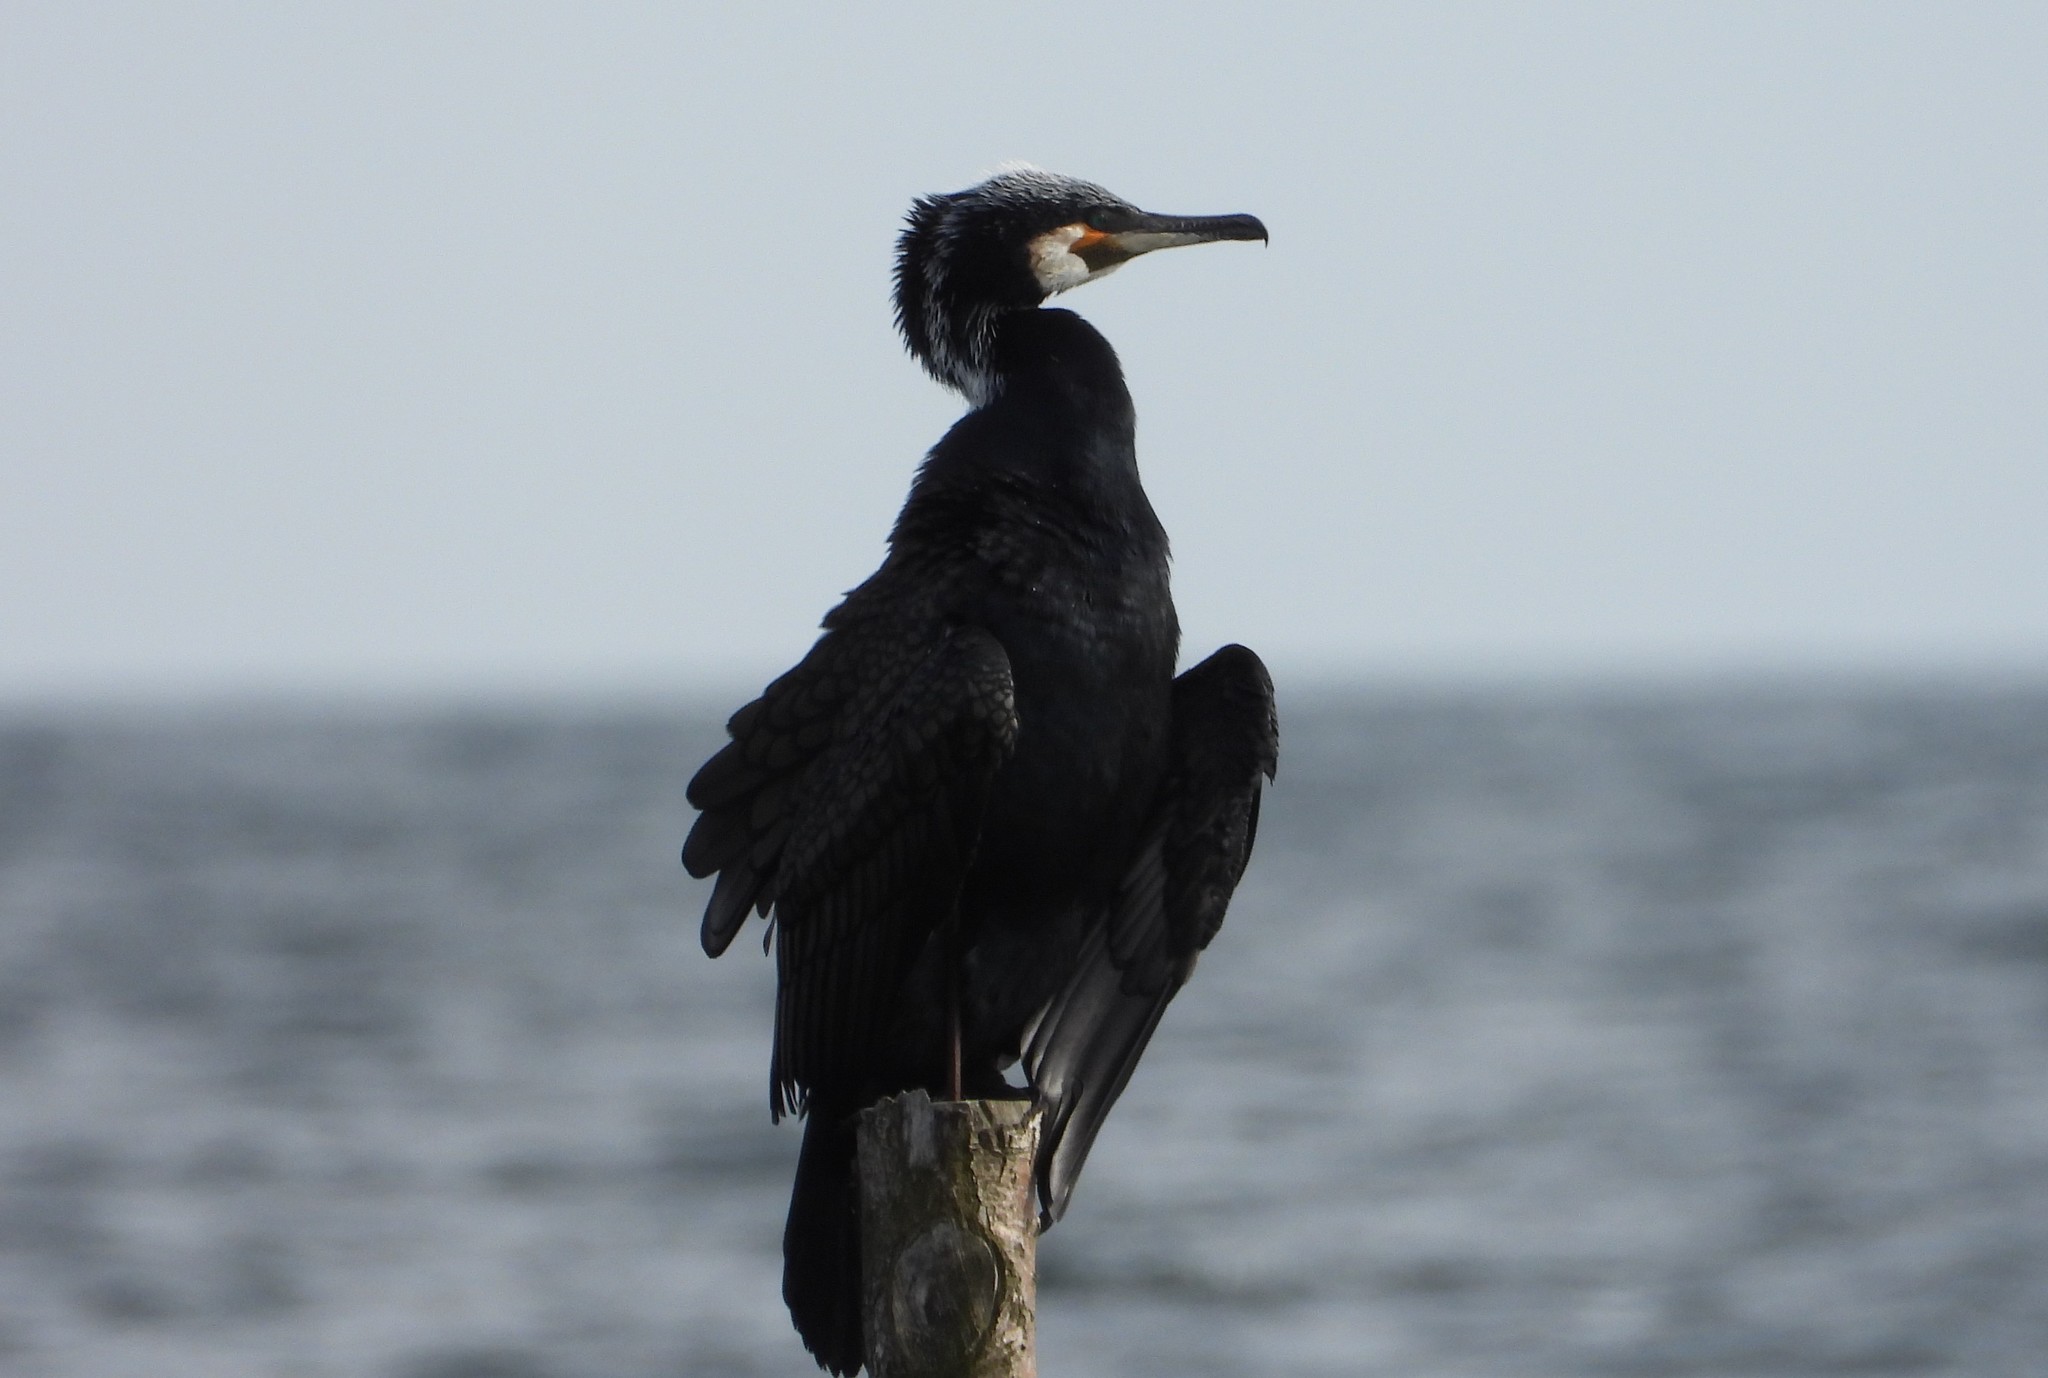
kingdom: Animalia
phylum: Chordata
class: Aves
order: Suliformes
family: Phalacrocoracidae
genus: Phalacrocorax
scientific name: Phalacrocorax carbo
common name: Great cormorant
